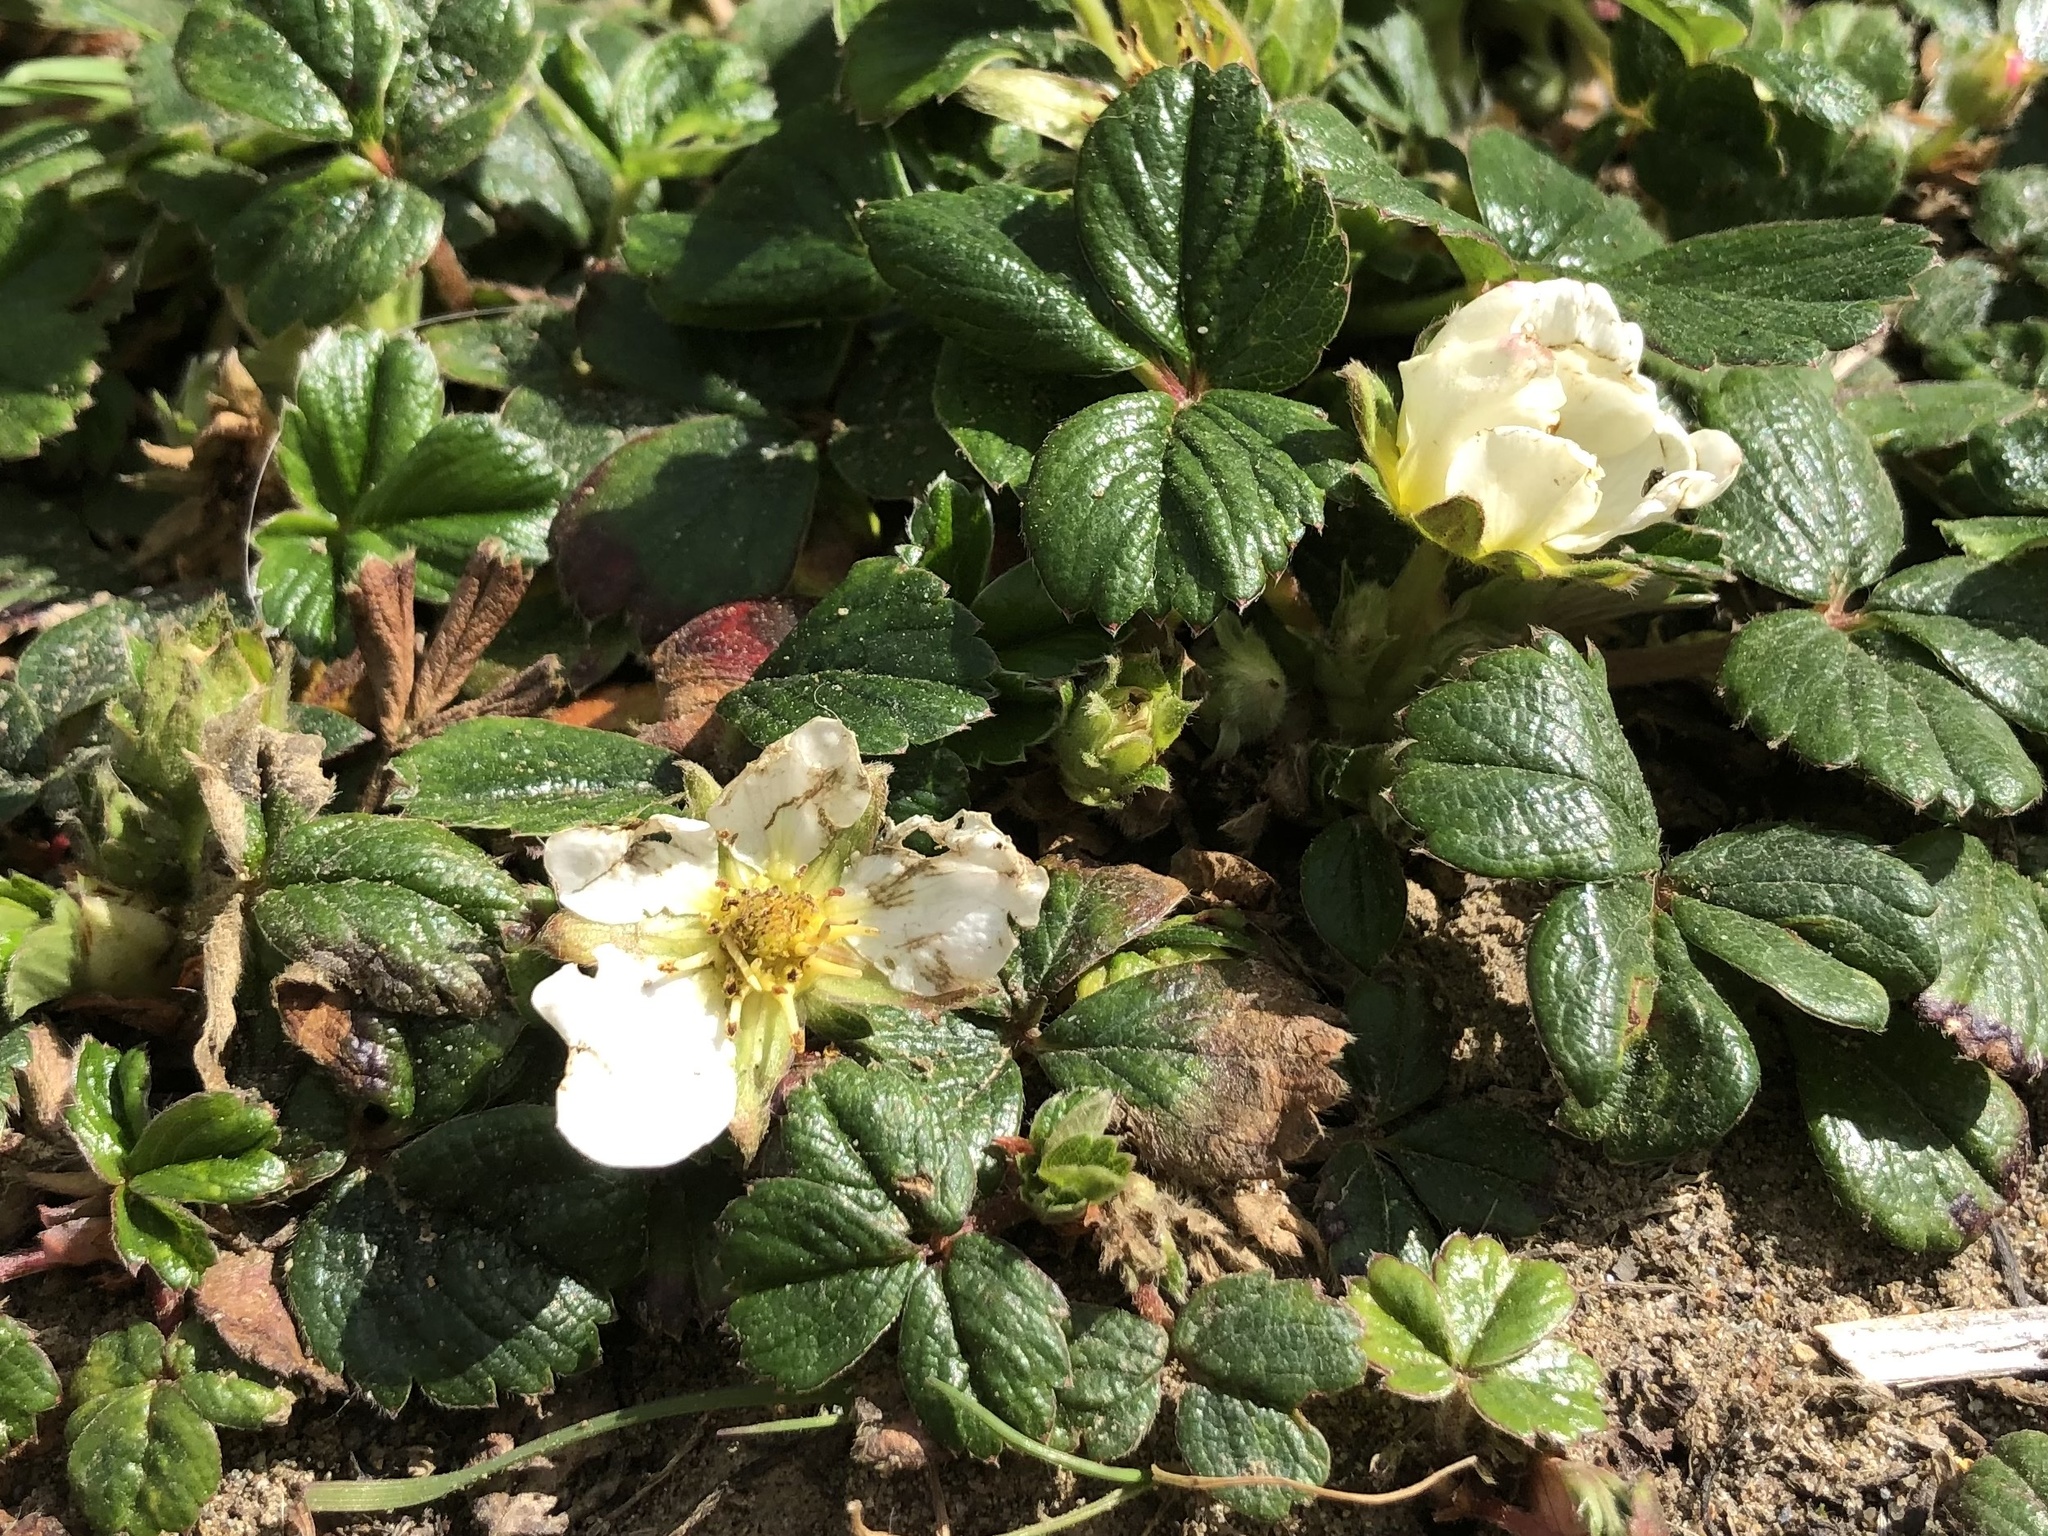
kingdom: Plantae
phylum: Tracheophyta
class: Magnoliopsida
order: Rosales
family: Rosaceae
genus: Fragaria
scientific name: Fragaria chiloensis
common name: Beach strawberry
